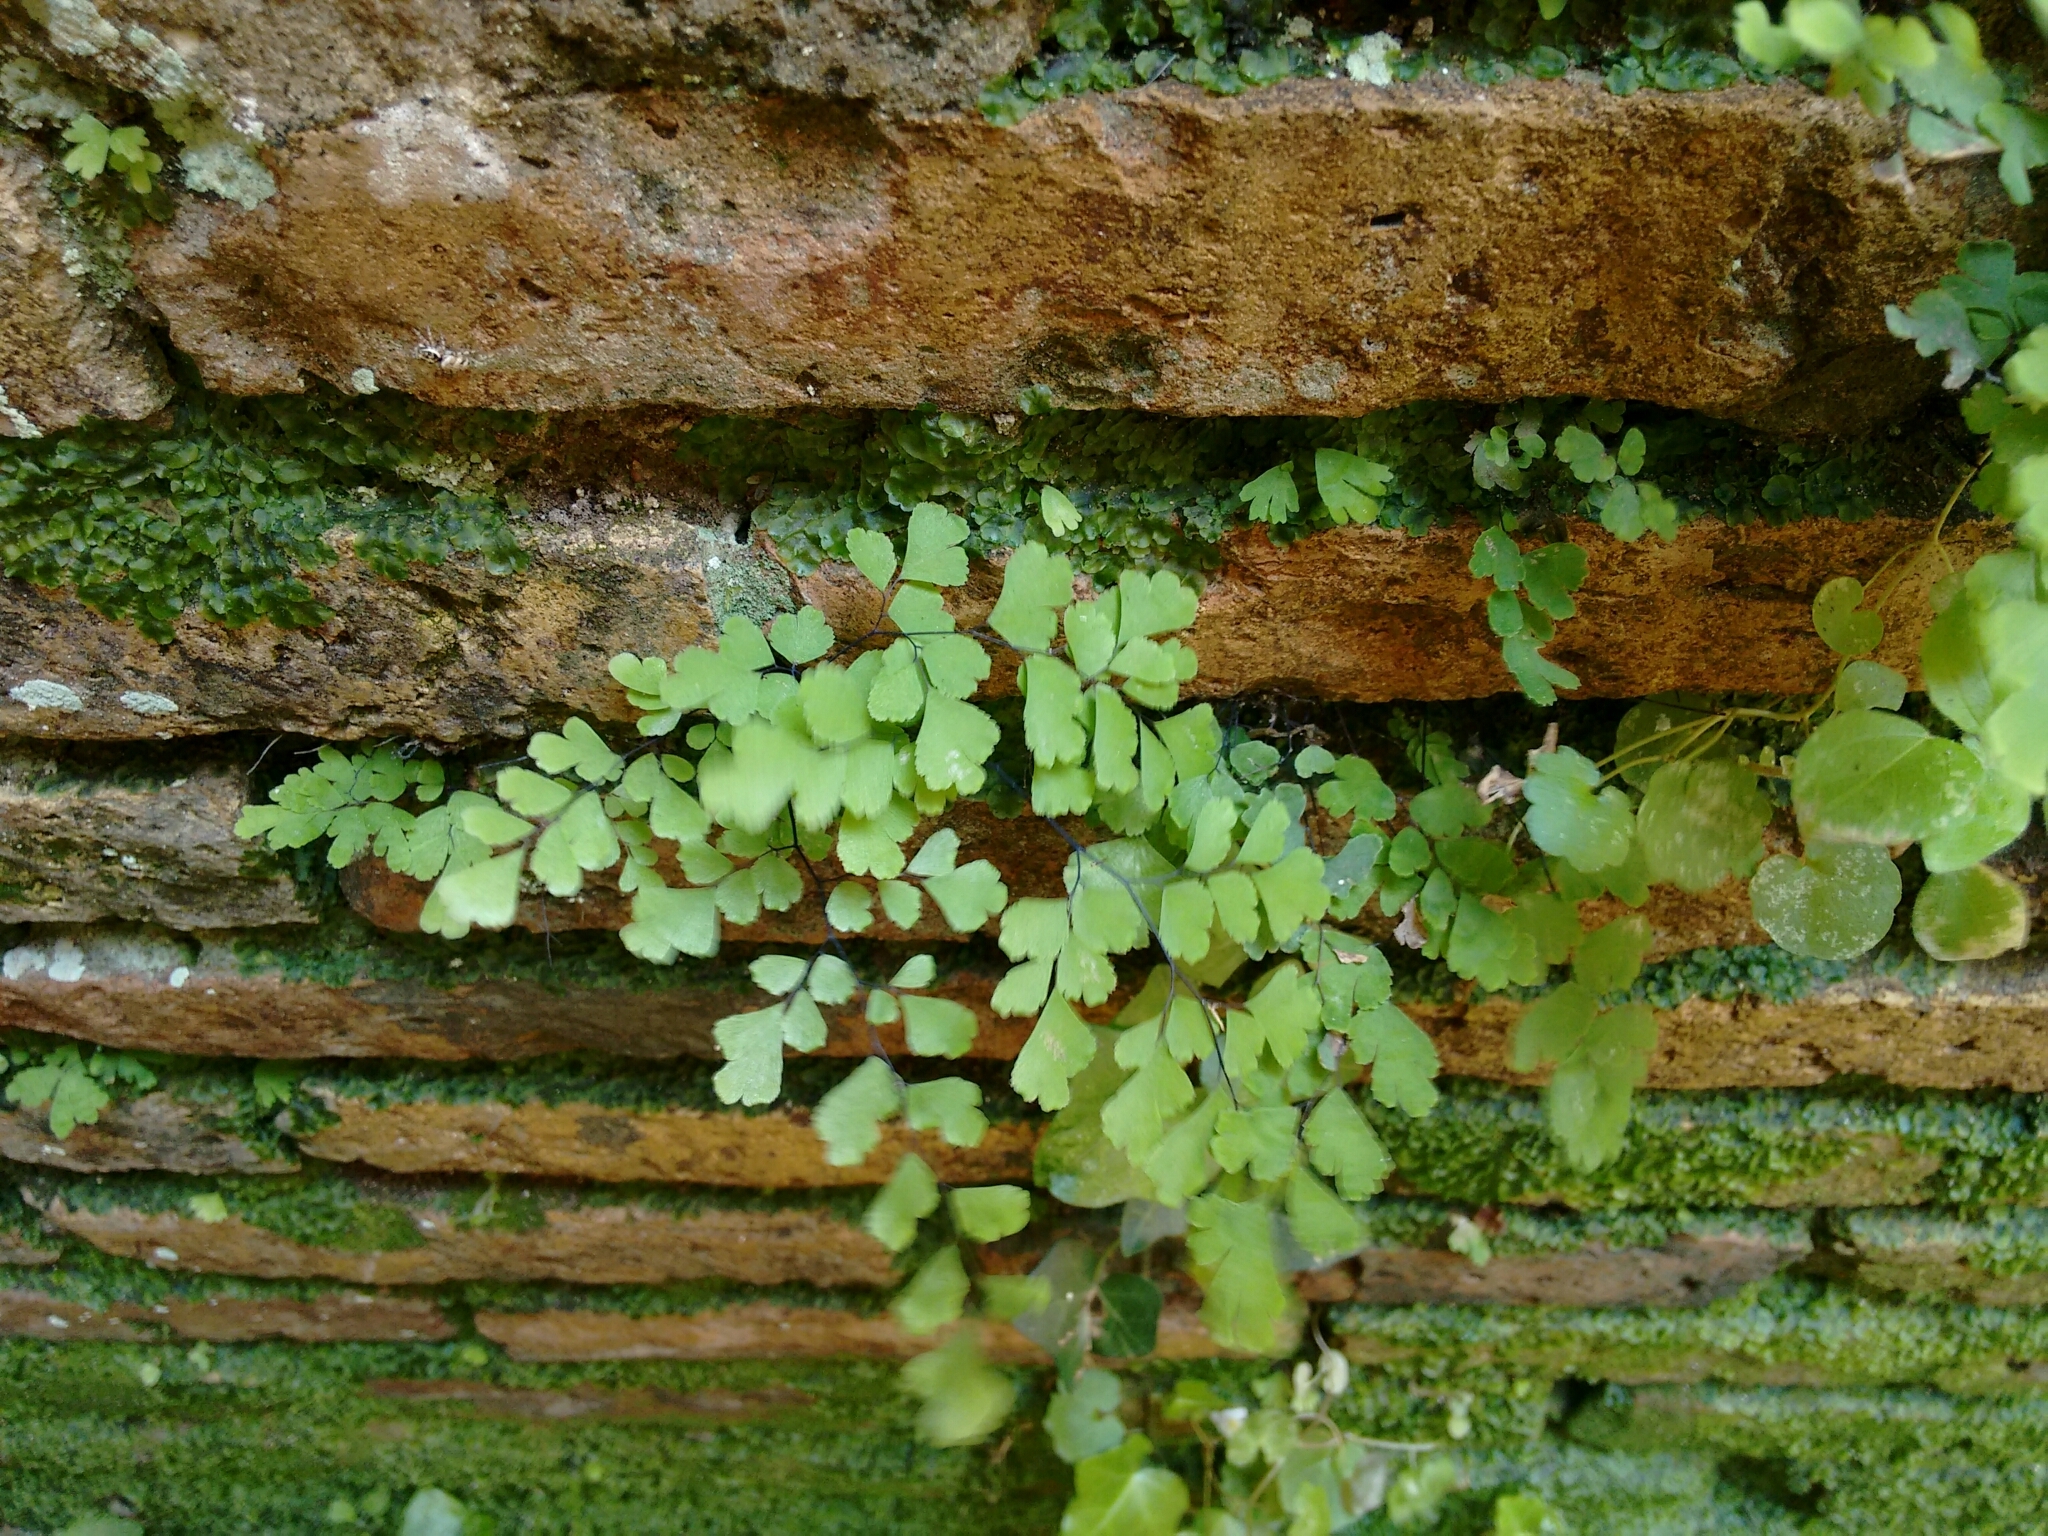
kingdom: Plantae
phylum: Tracheophyta
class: Polypodiopsida
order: Polypodiales
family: Pteridaceae
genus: Adiantum
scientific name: Adiantum capillus-veneris
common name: Maidenhair fern
